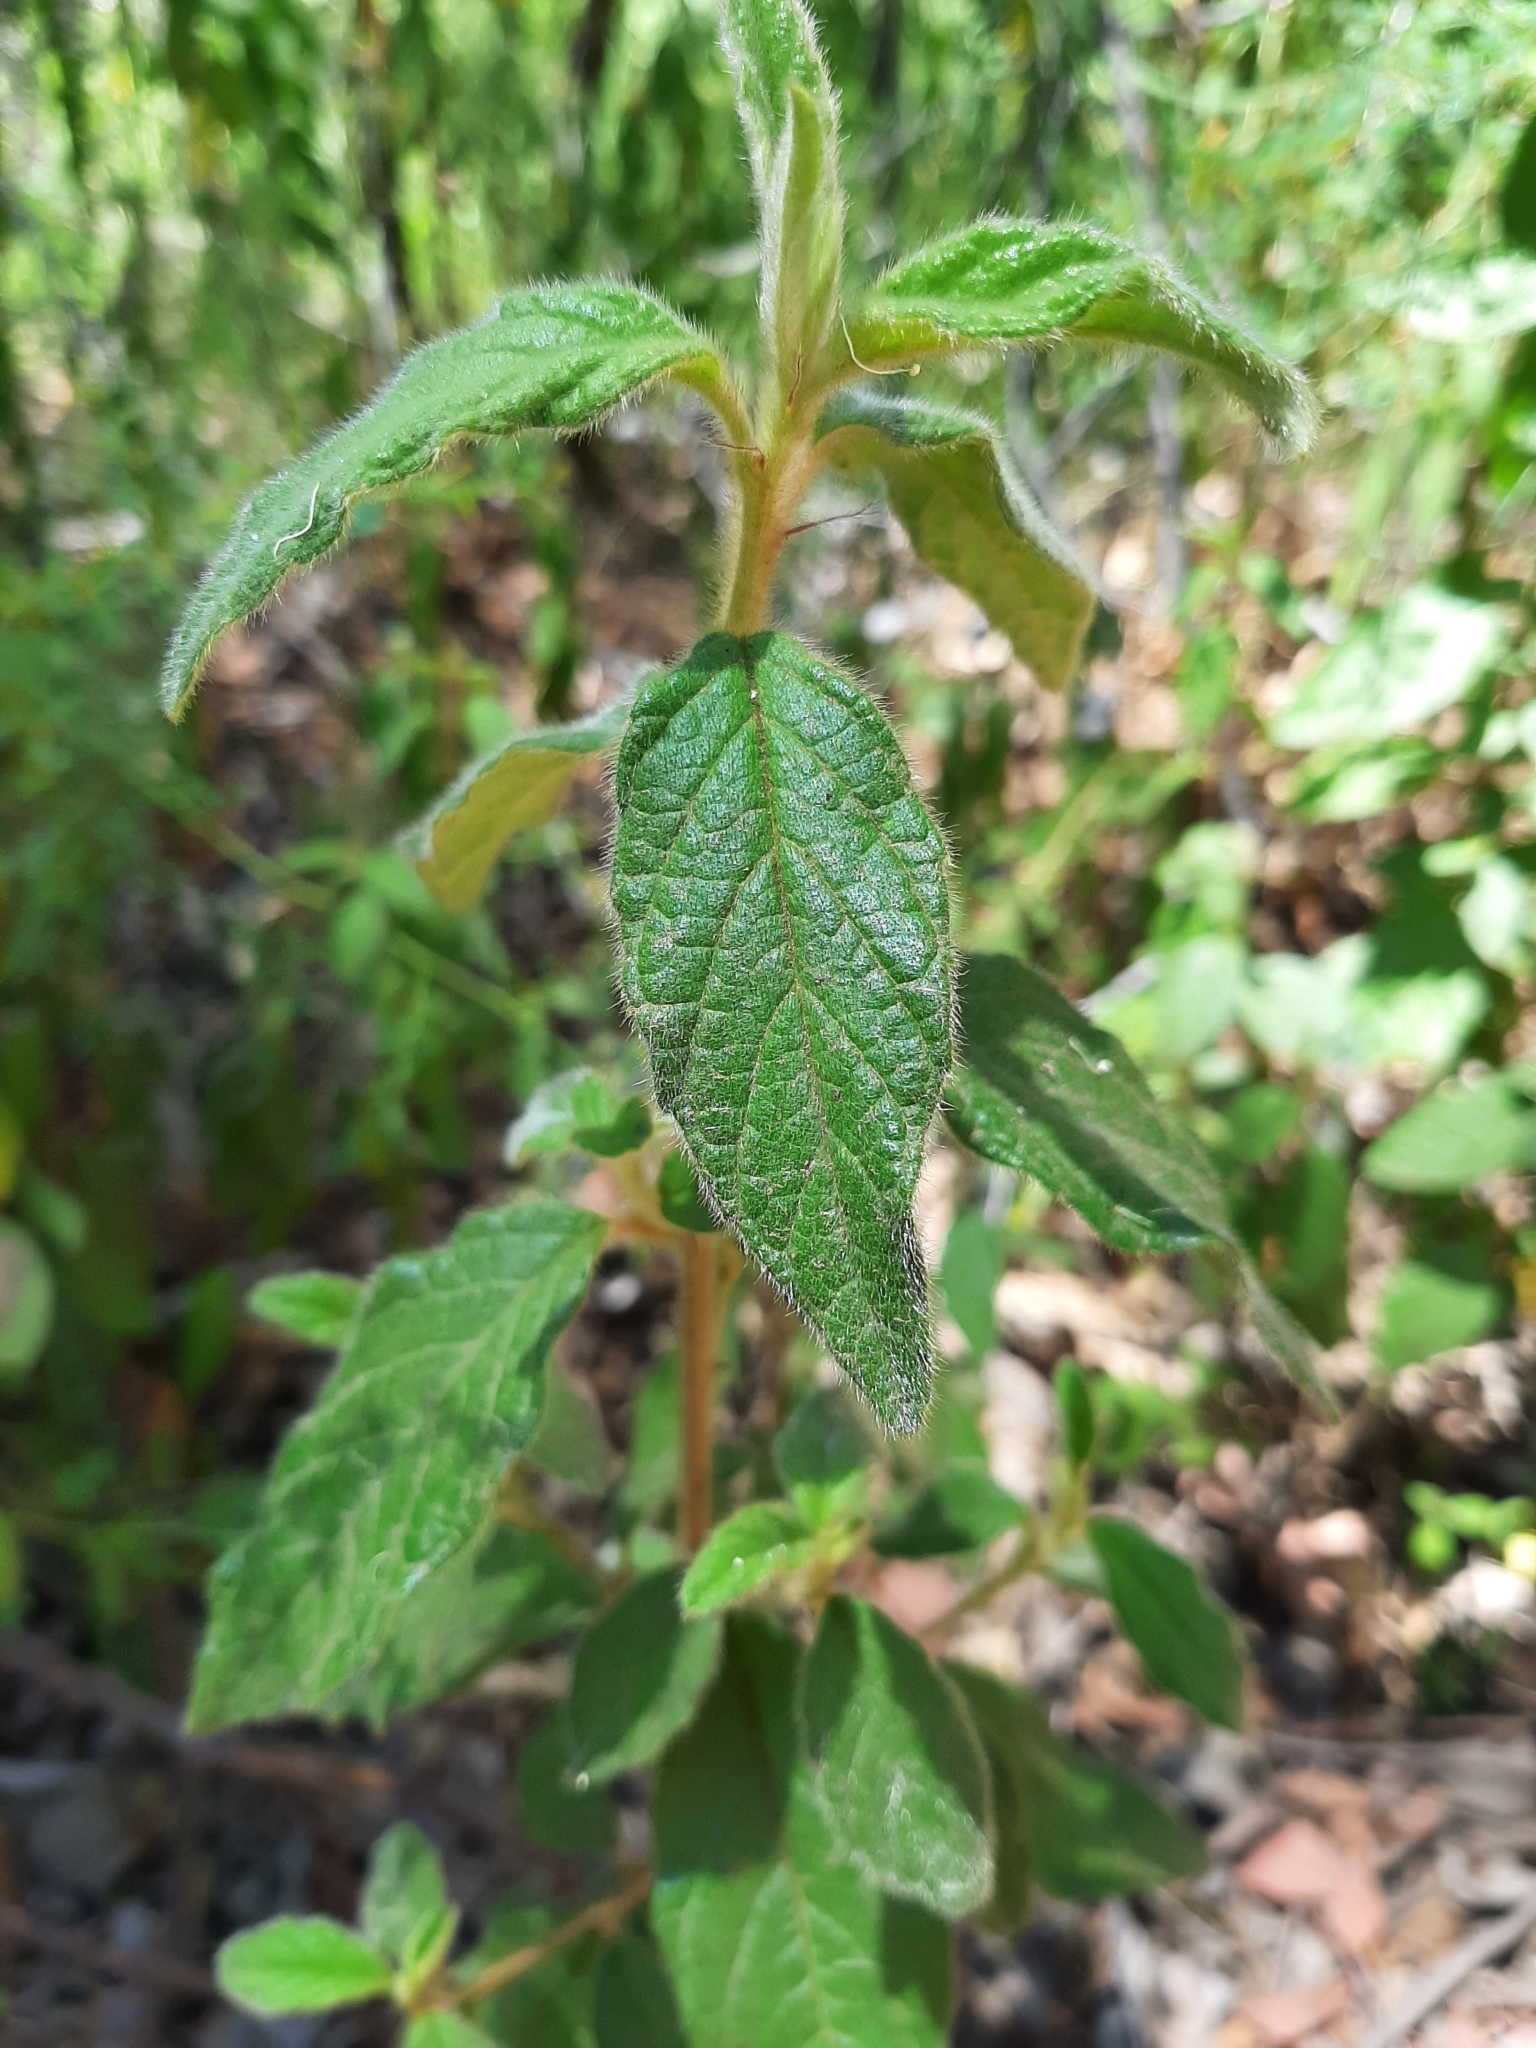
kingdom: Plantae
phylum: Tracheophyta
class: Magnoliopsida
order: Rosales
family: Rhamnaceae
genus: Trymalium
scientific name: Trymalium odoratissimum
